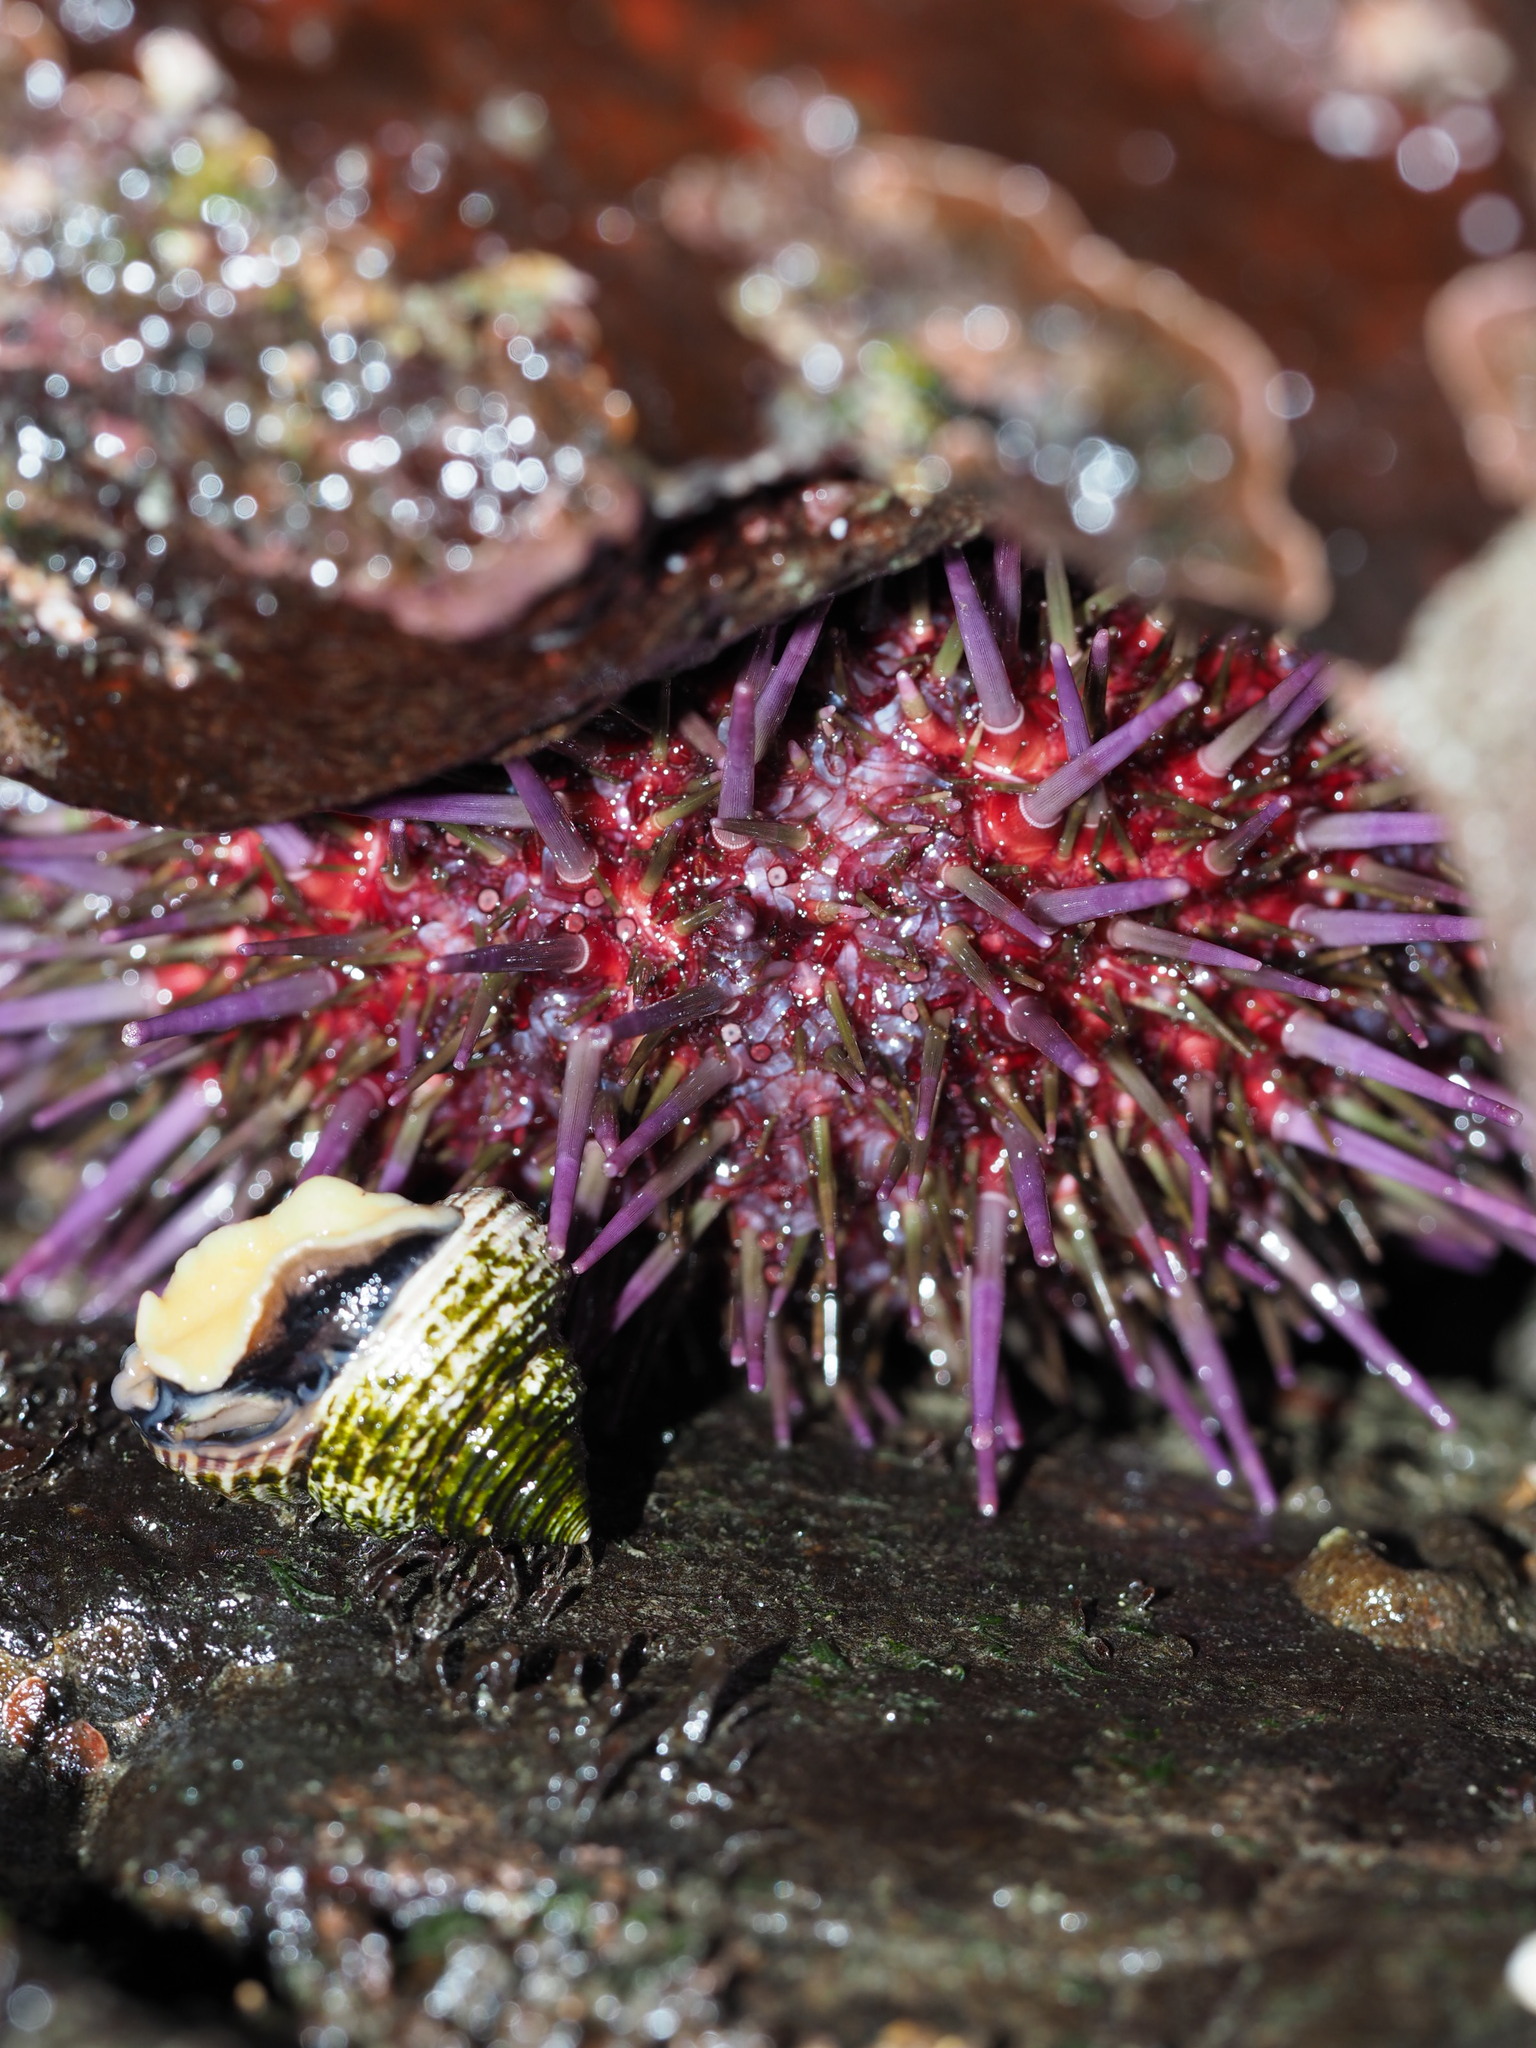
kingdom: Animalia
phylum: Echinodermata
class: Echinoidea
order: Camarodonta
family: Strongylocentrotidae
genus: Strongylocentrotus
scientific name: Strongylocentrotus purpuratus
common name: Purple sea urchin
